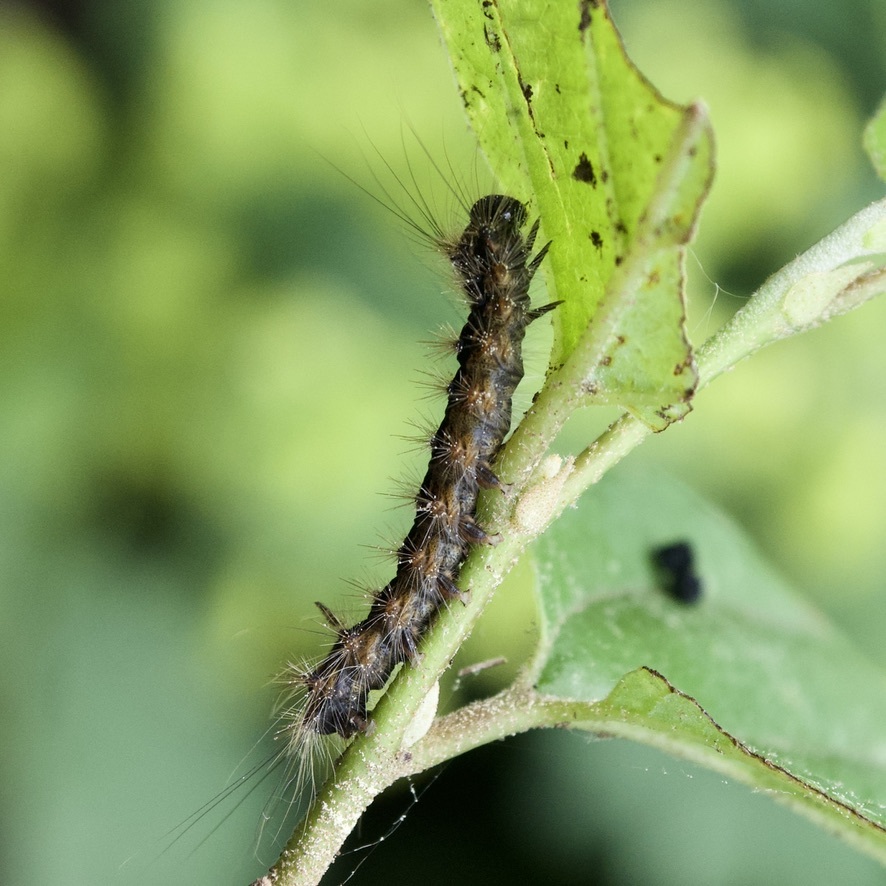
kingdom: Animalia
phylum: Arthropoda
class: Insecta
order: Lepidoptera
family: Erebidae
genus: Lymantria
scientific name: Lymantria dispar
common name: Gypsy moth
